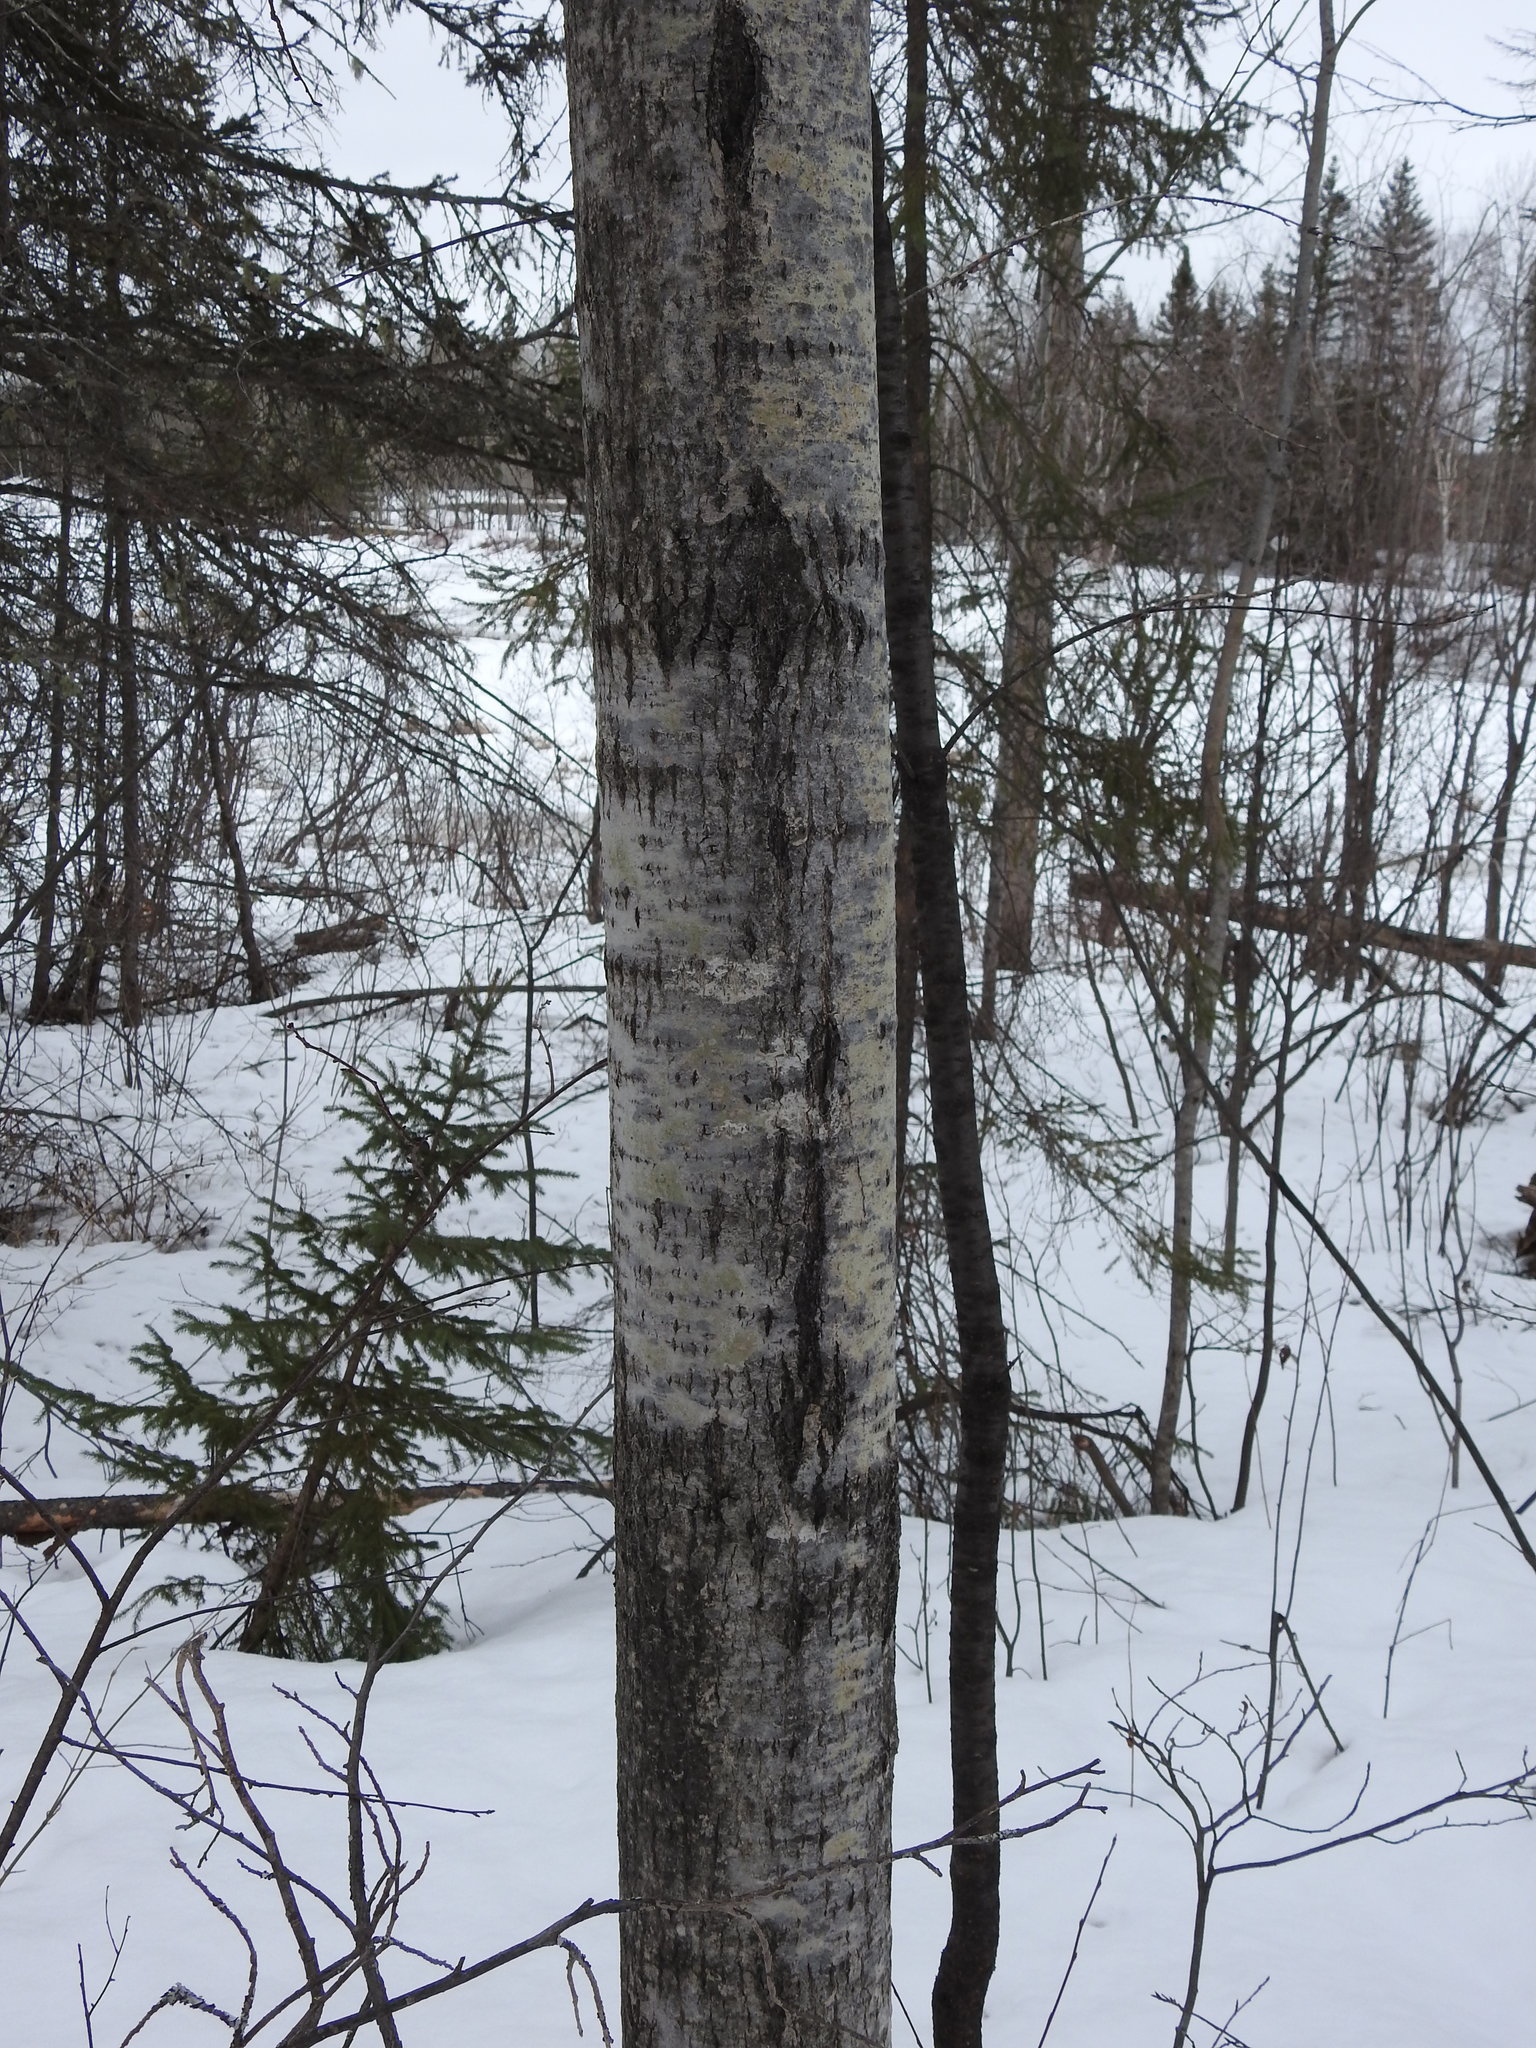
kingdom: Plantae
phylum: Tracheophyta
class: Magnoliopsida
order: Malpighiales
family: Salicaceae
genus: Populus
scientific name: Populus tremuloides
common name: Quaking aspen
